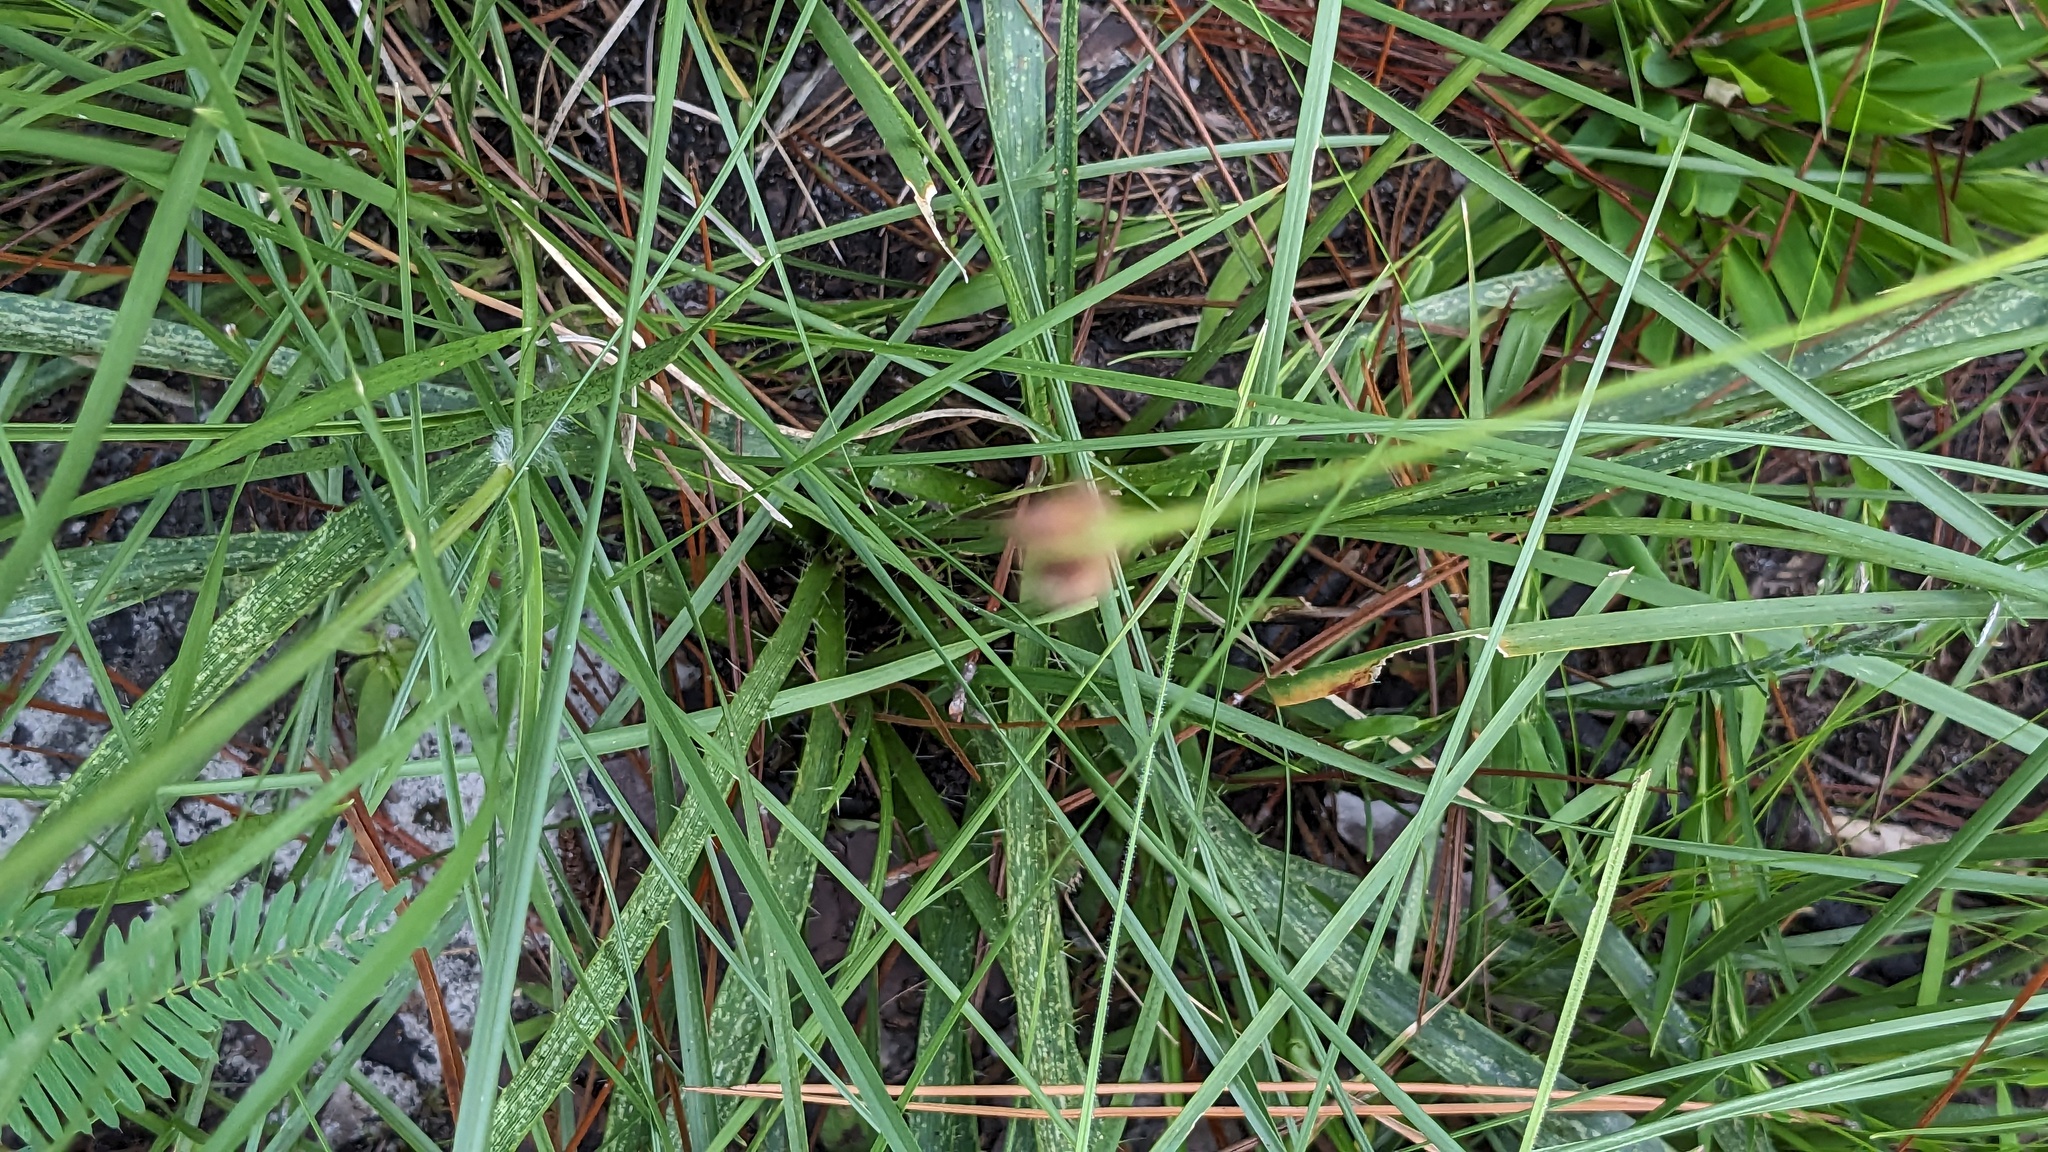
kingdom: Plantae
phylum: Tracheophyta
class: Magnoliopsida
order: Apiales
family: Apiaceae
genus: Eryngium
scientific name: Eryngium yuccifolium
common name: Button eryngo
